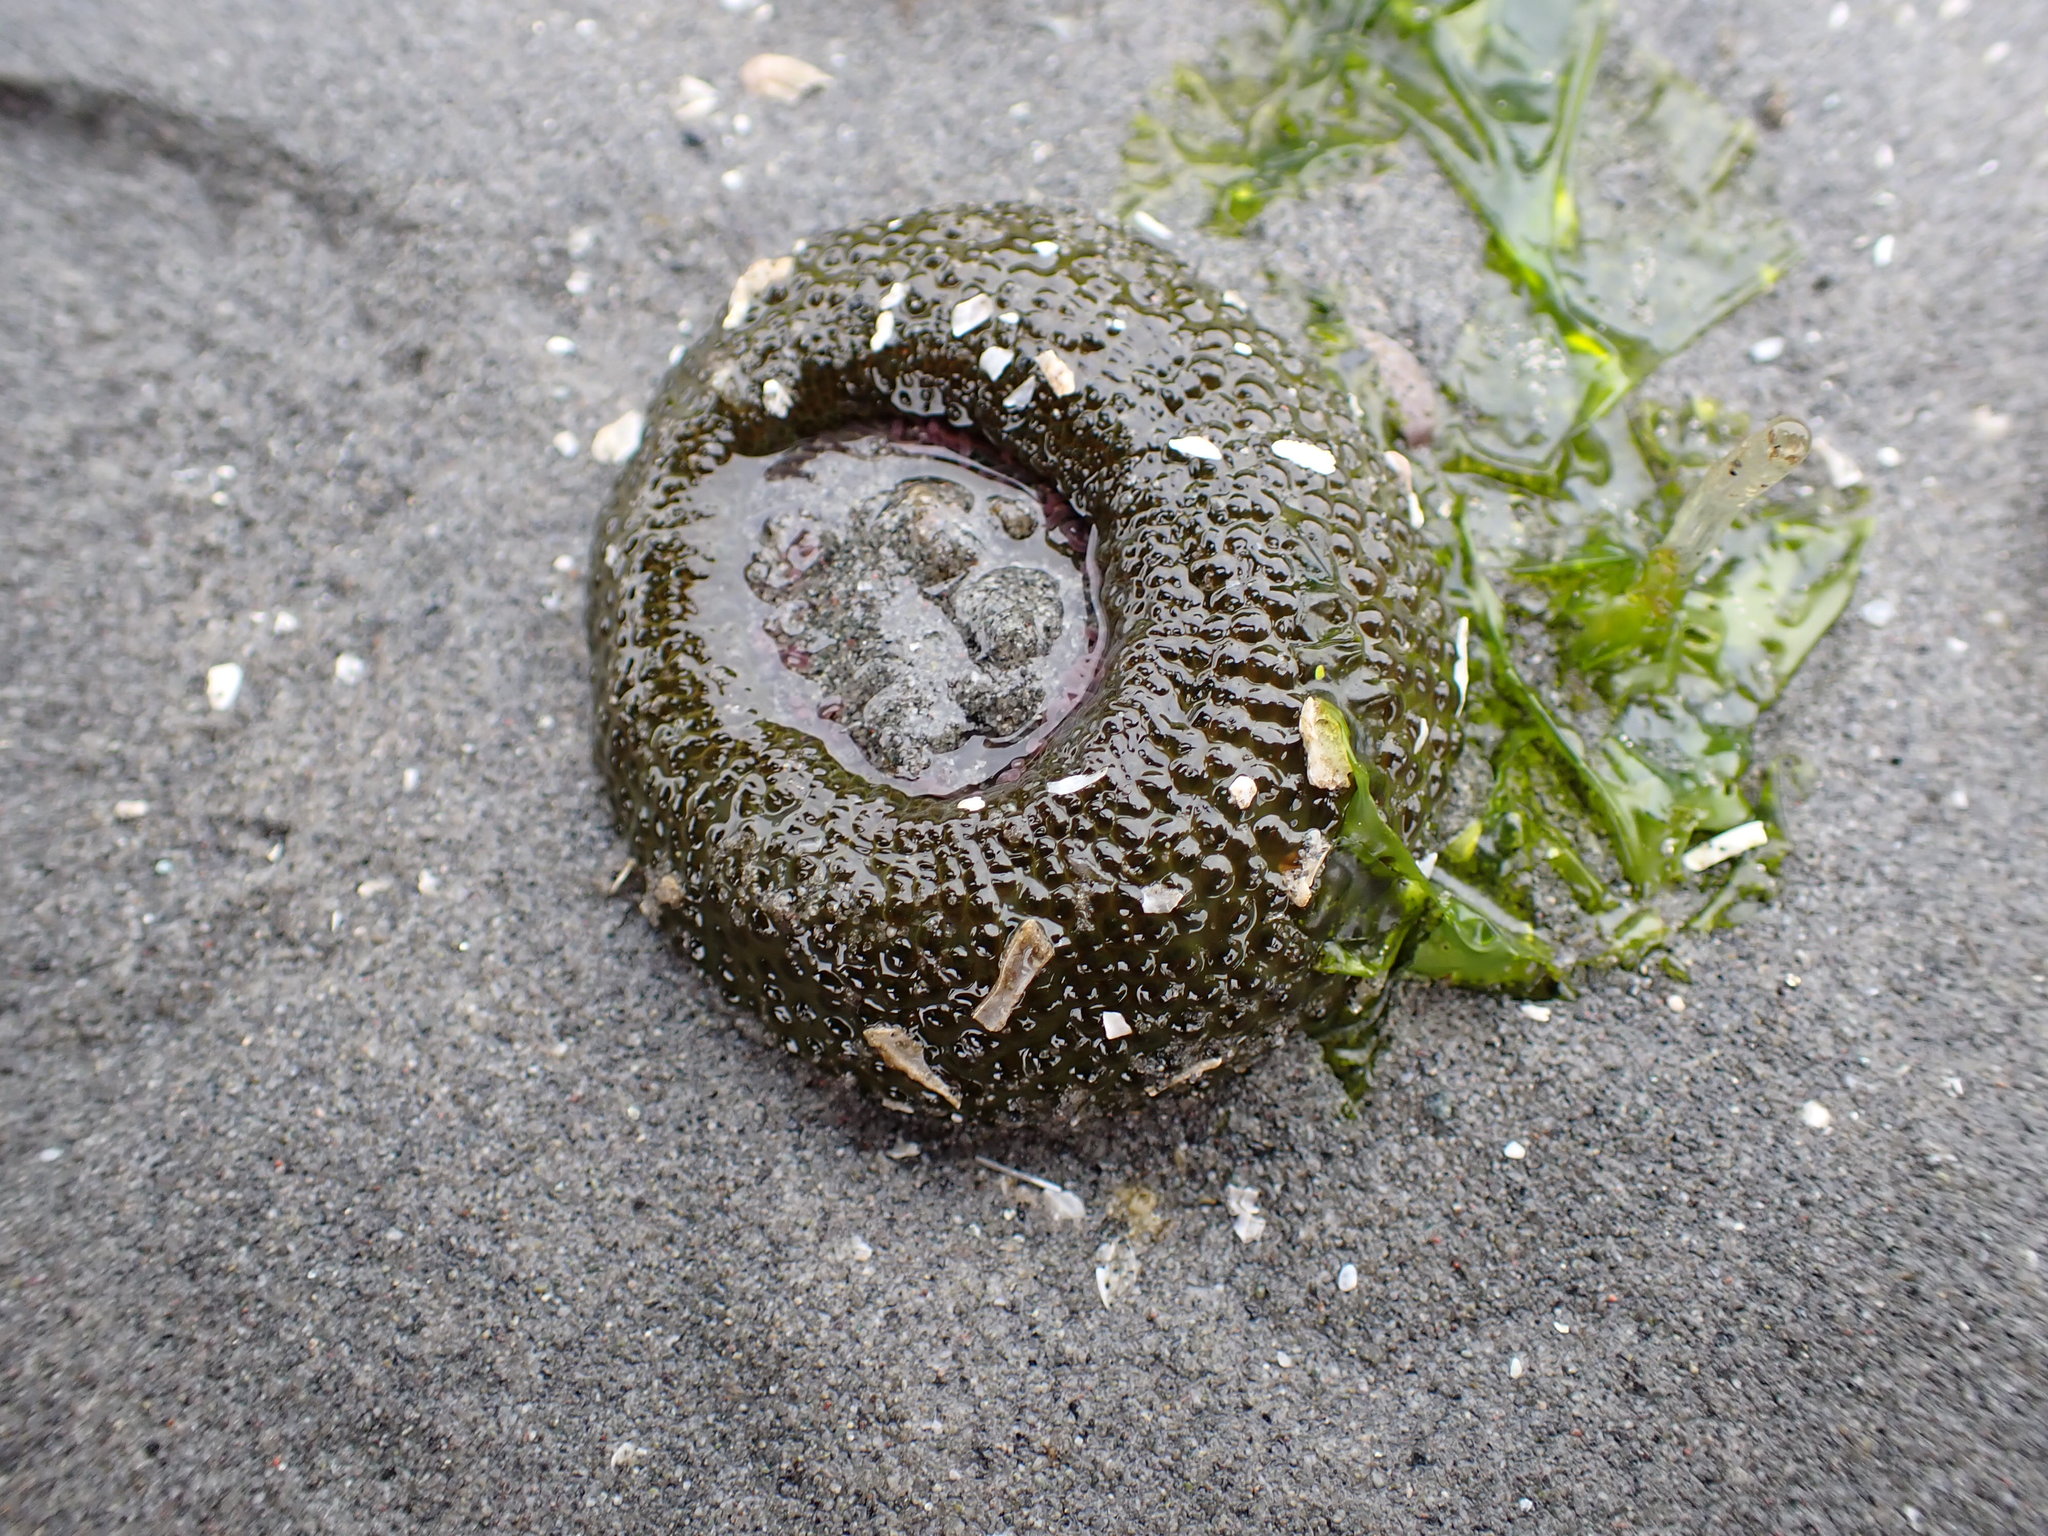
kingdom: Animalia
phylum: Cnidaria
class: Anthozoa
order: Actiniaria
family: Actiniidae
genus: Anthopleura
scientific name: Anthopleura elegantissima
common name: Clonal anemone
